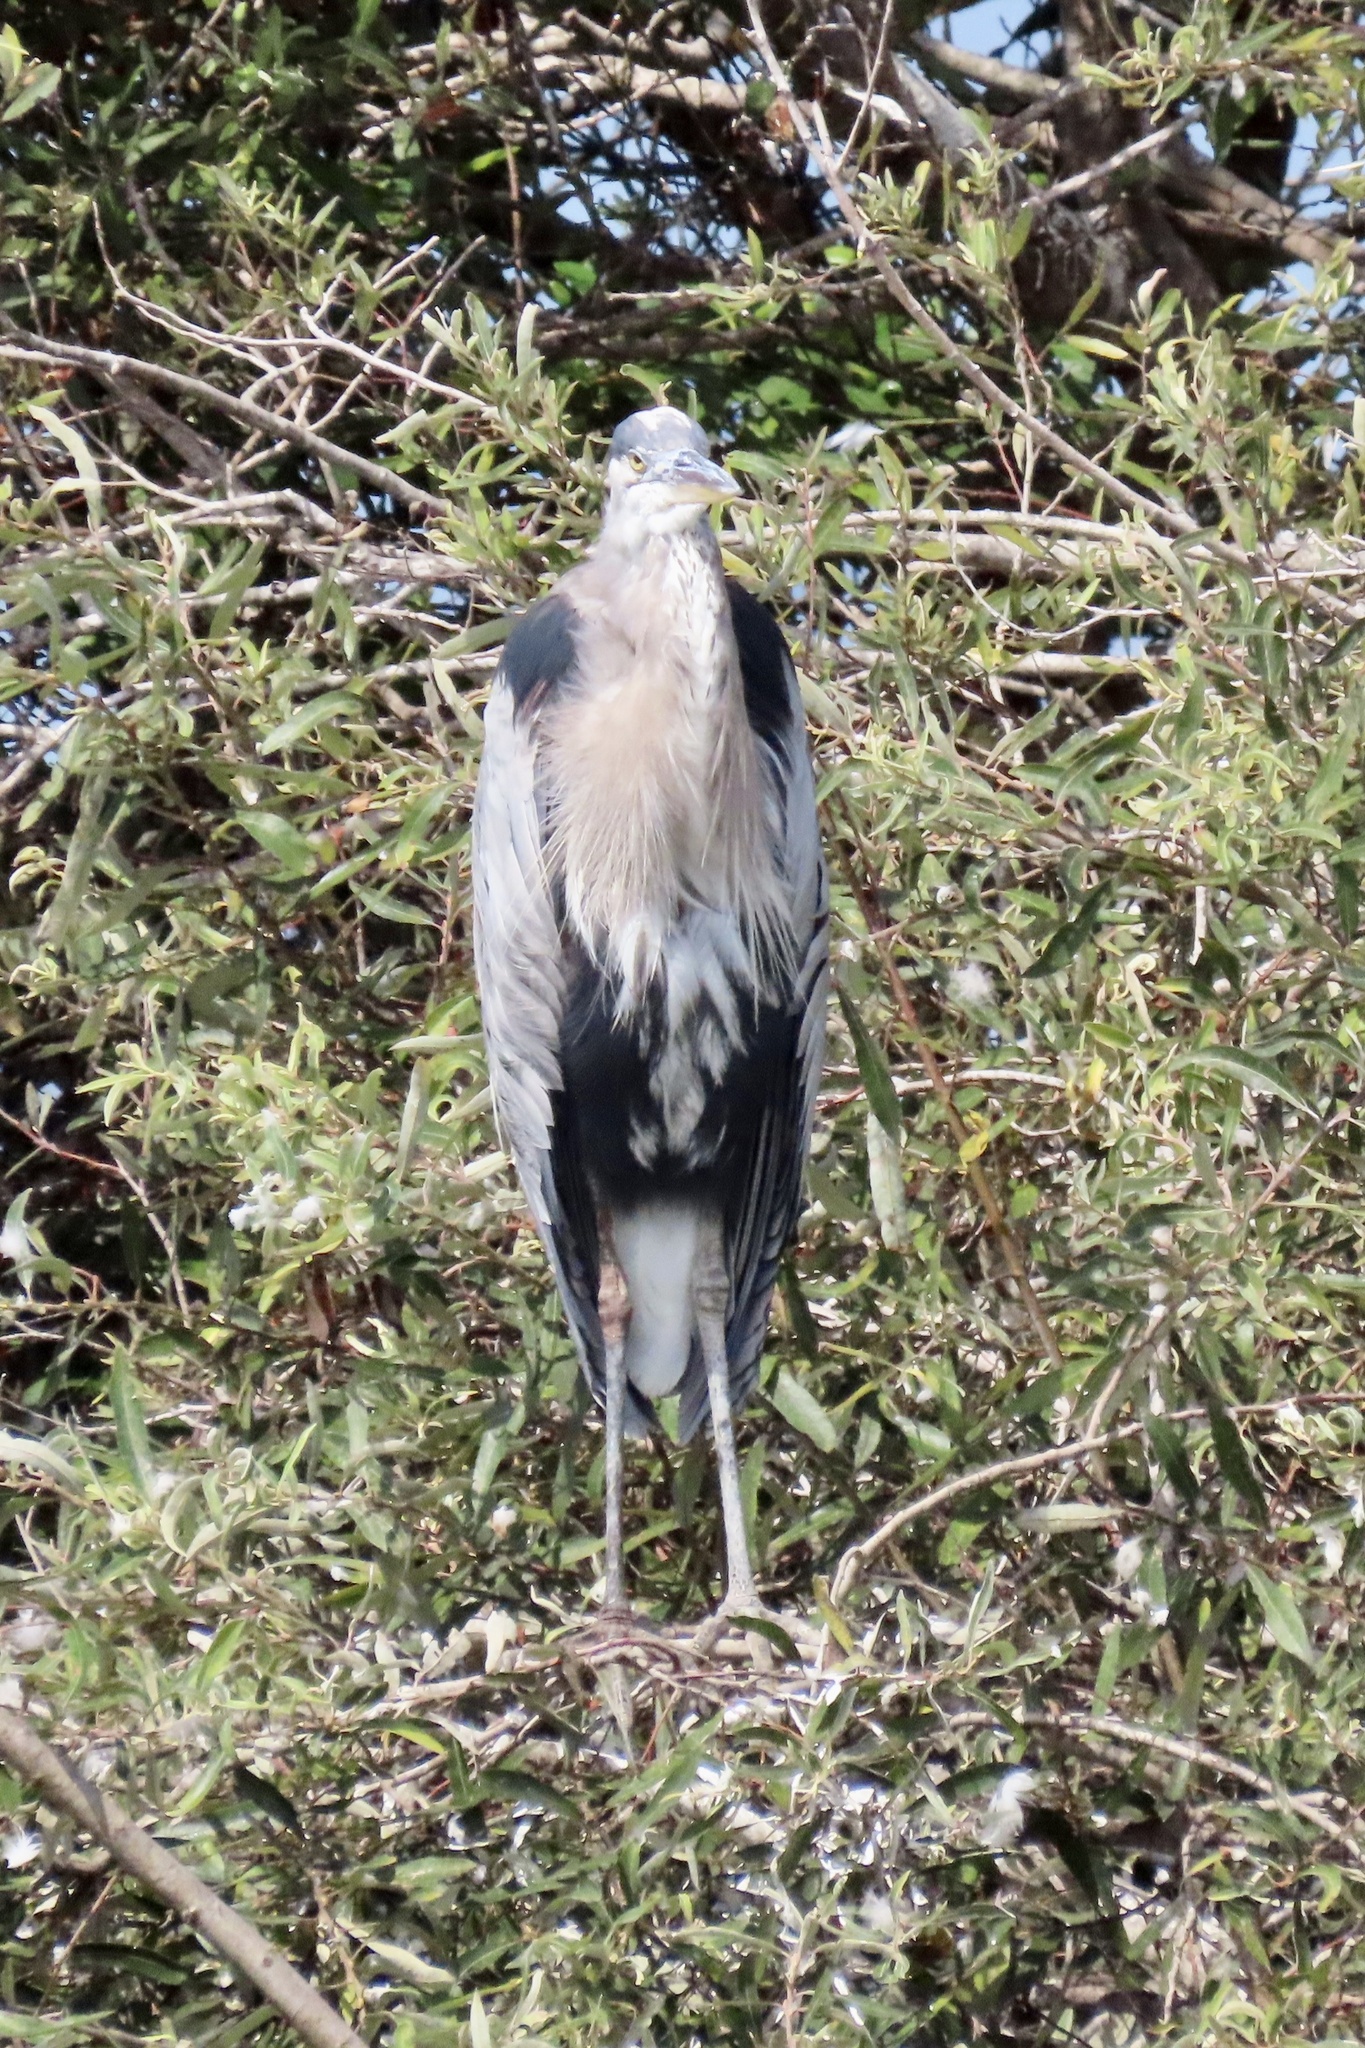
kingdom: Animalia
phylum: Chordata
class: Aves
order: Pelecaniformes
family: Ardeidae
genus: Ardea
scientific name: Ardea herodias
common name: Great blue heron
